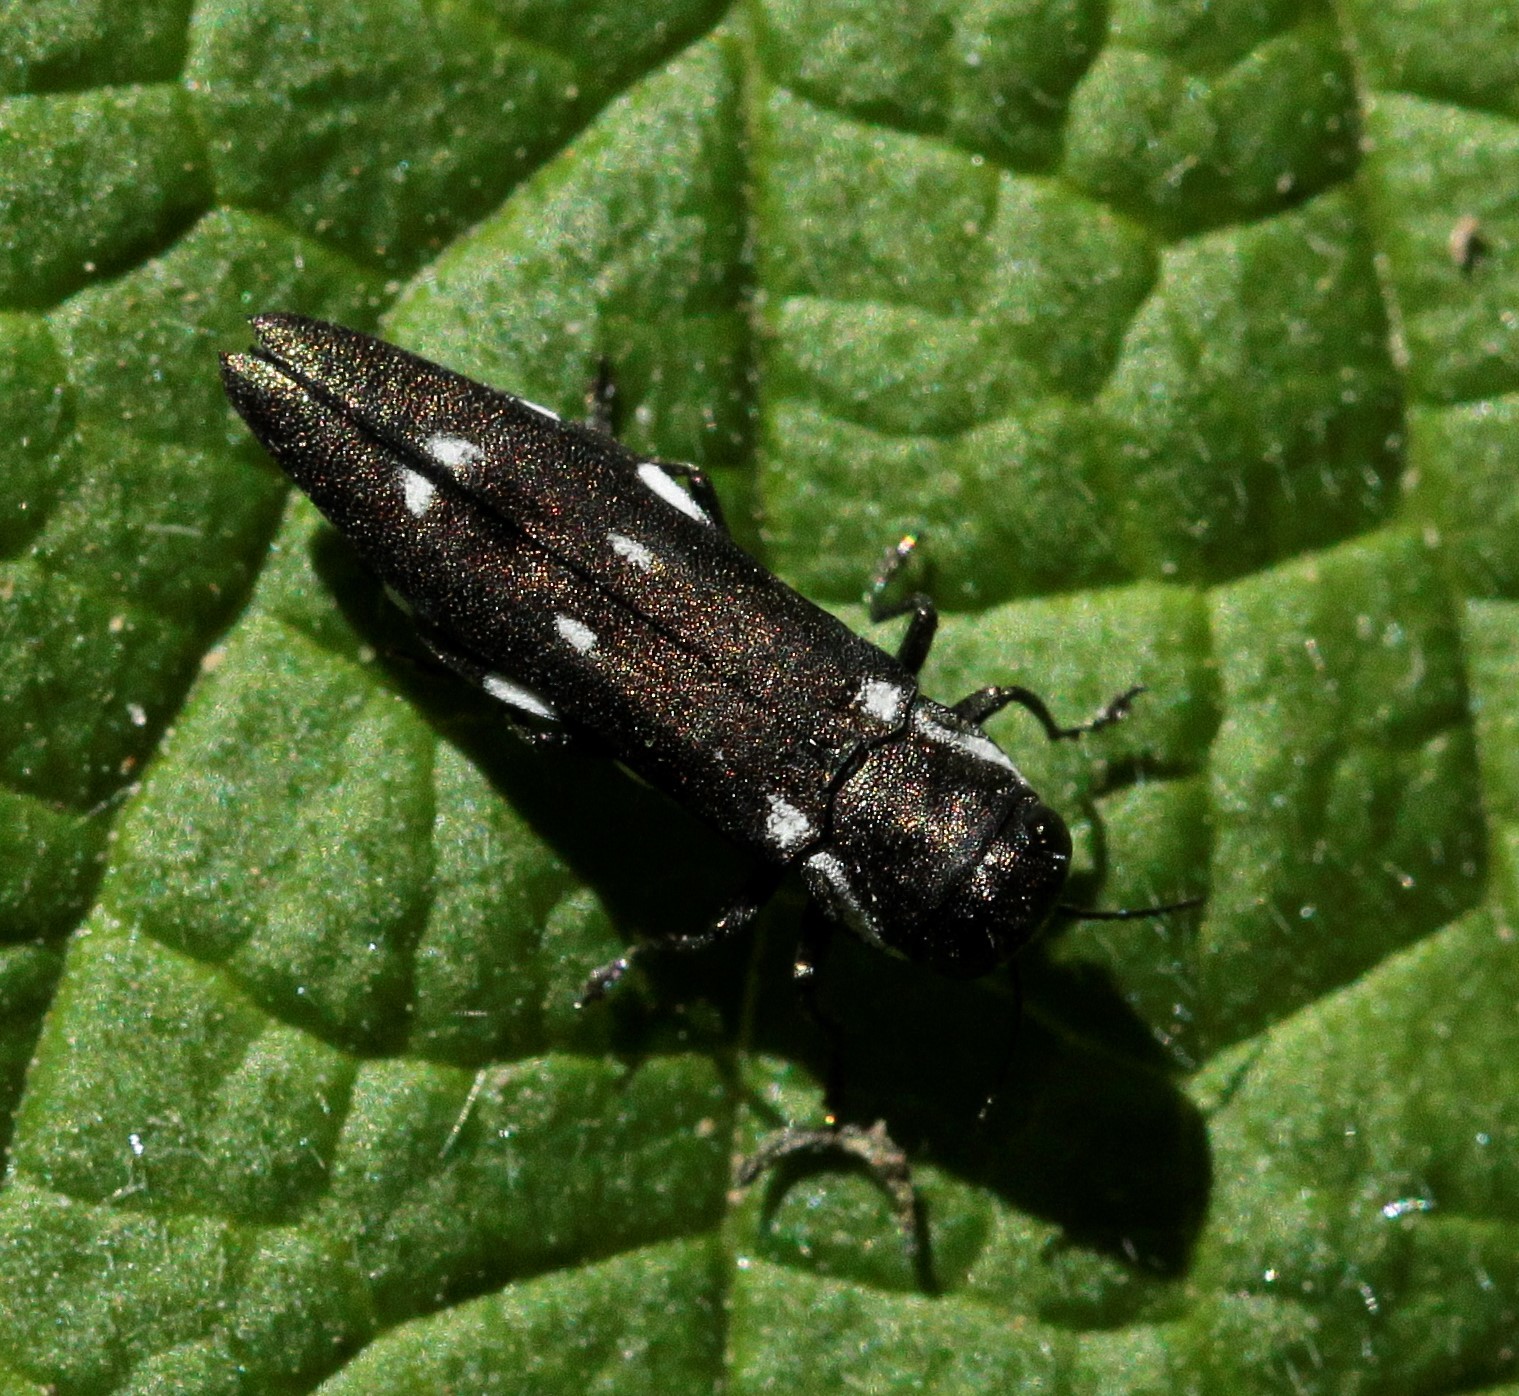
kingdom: Animalia
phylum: Arthropoda
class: Insecta
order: Coleoptera
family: Buprestidae
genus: Agrilus
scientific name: Agrilus ater
